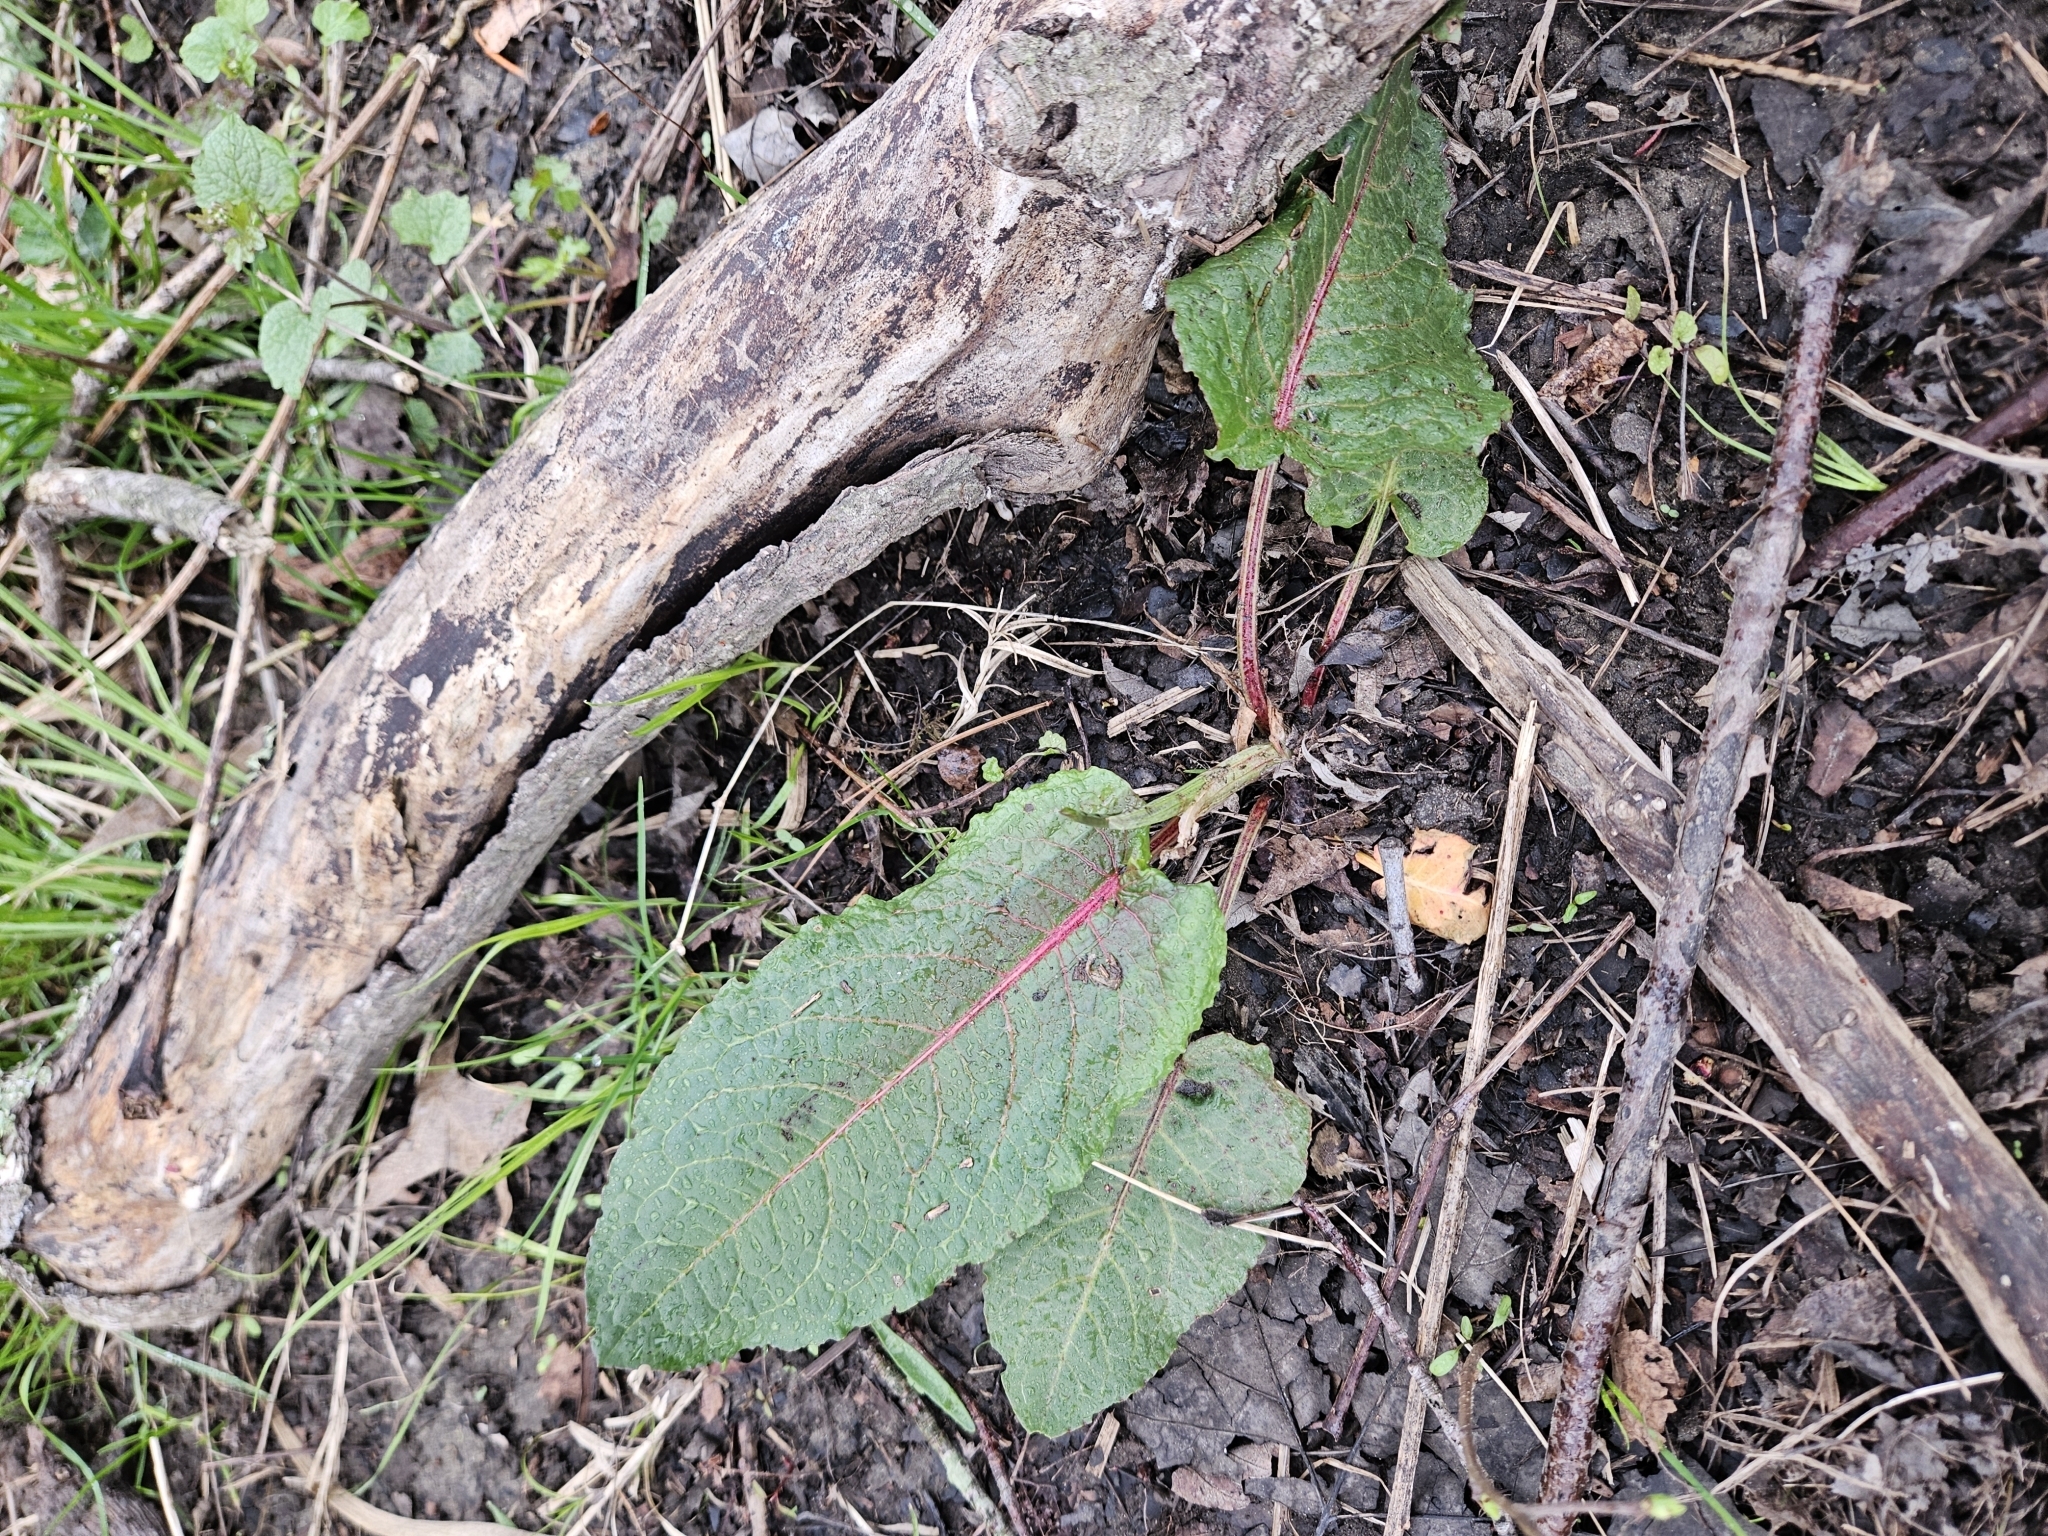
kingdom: Plantae
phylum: Tracheophyta
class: Magnoliopsida
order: Caryophyllales
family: Polygonaceae
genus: Rumex
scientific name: Rumex obtusifolius
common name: Bitter dock
